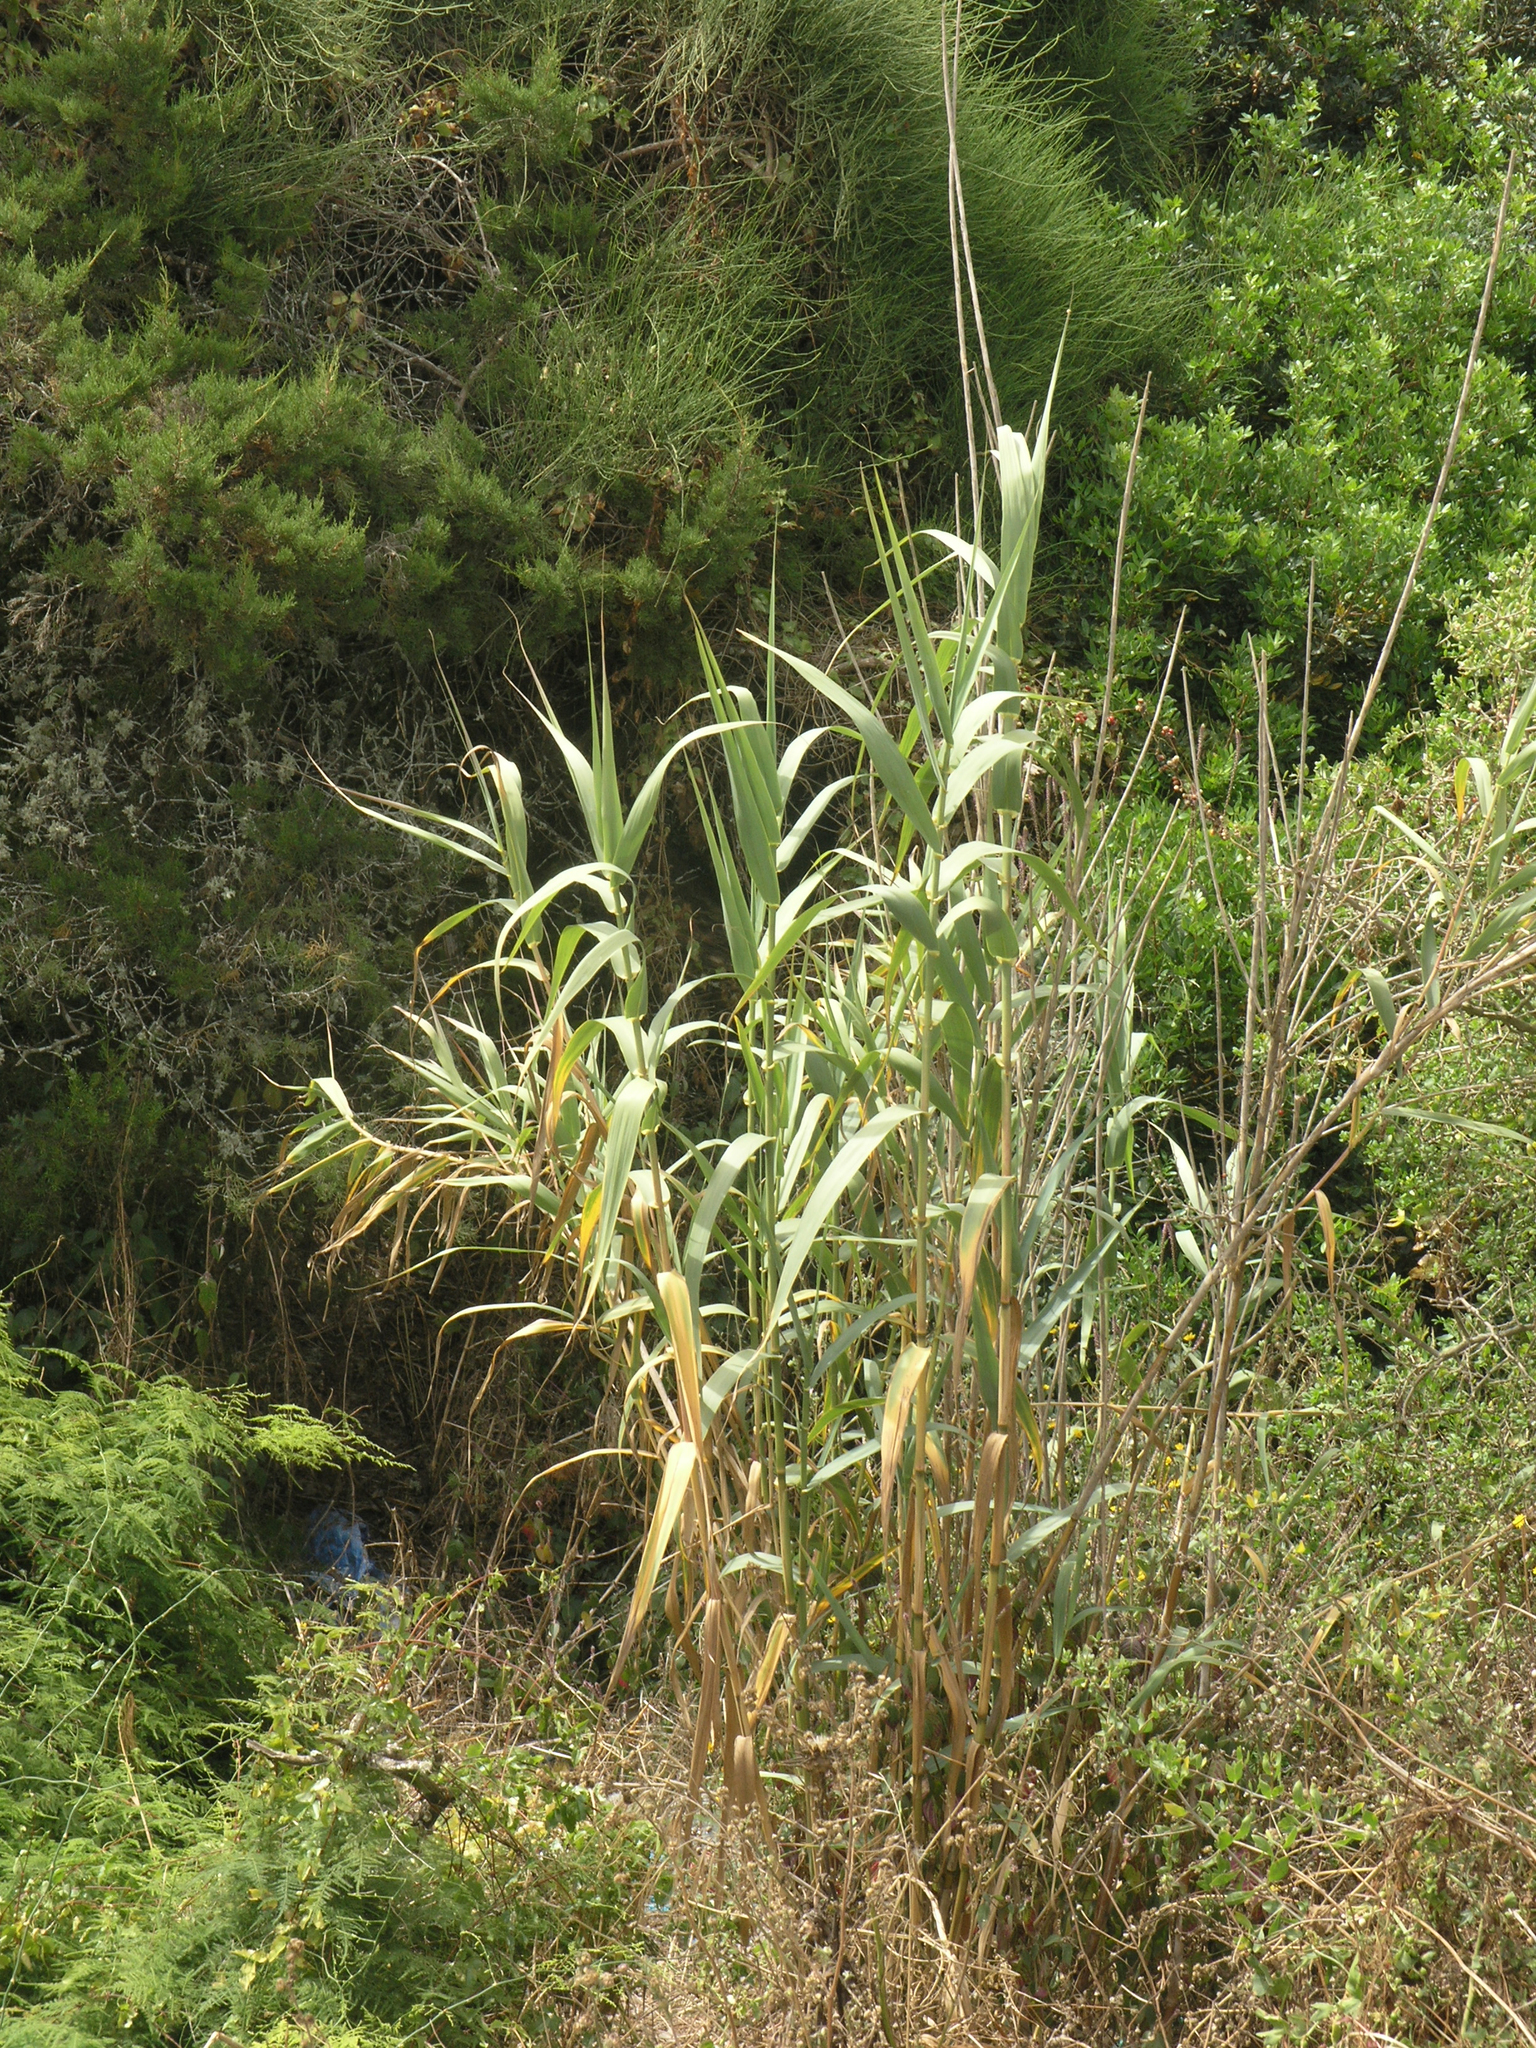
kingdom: Plantae
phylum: Tracheophyta
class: Liliopsida
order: Poales
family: Poaceae
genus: Phragmites
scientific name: Phragmites australis
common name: Common reed
